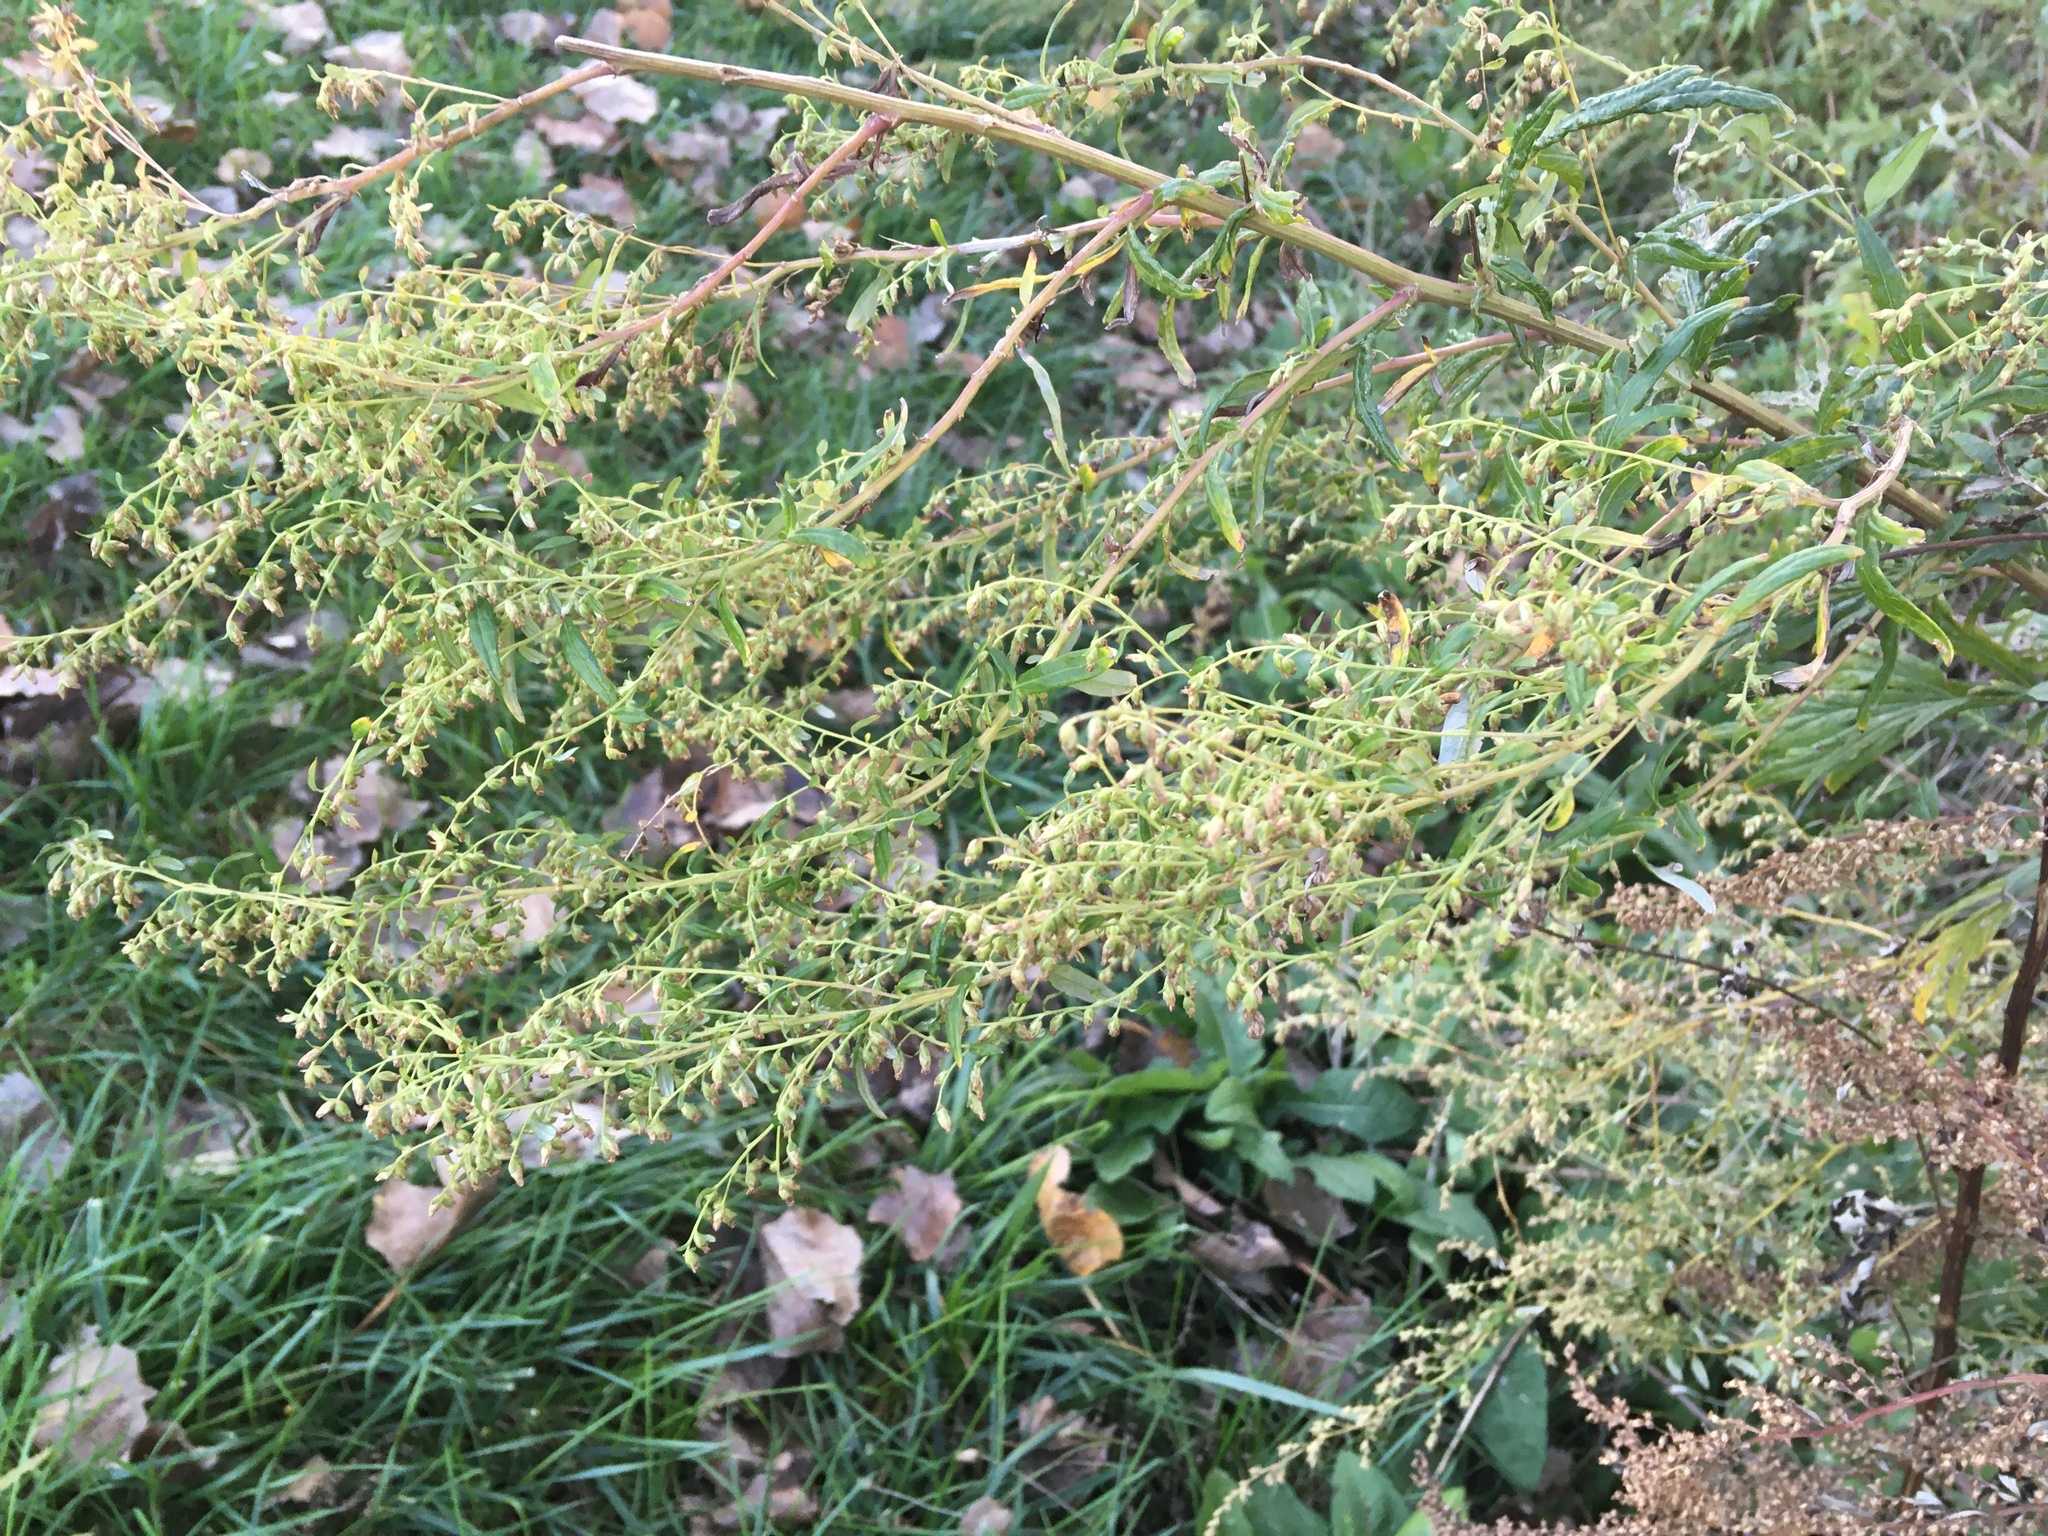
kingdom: Plantae
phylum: Tracheophyta
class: Magnoliopsida
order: Asterales
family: Asteraceae
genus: Artemisia
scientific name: Artemisia vulgaris
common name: Mugwort
